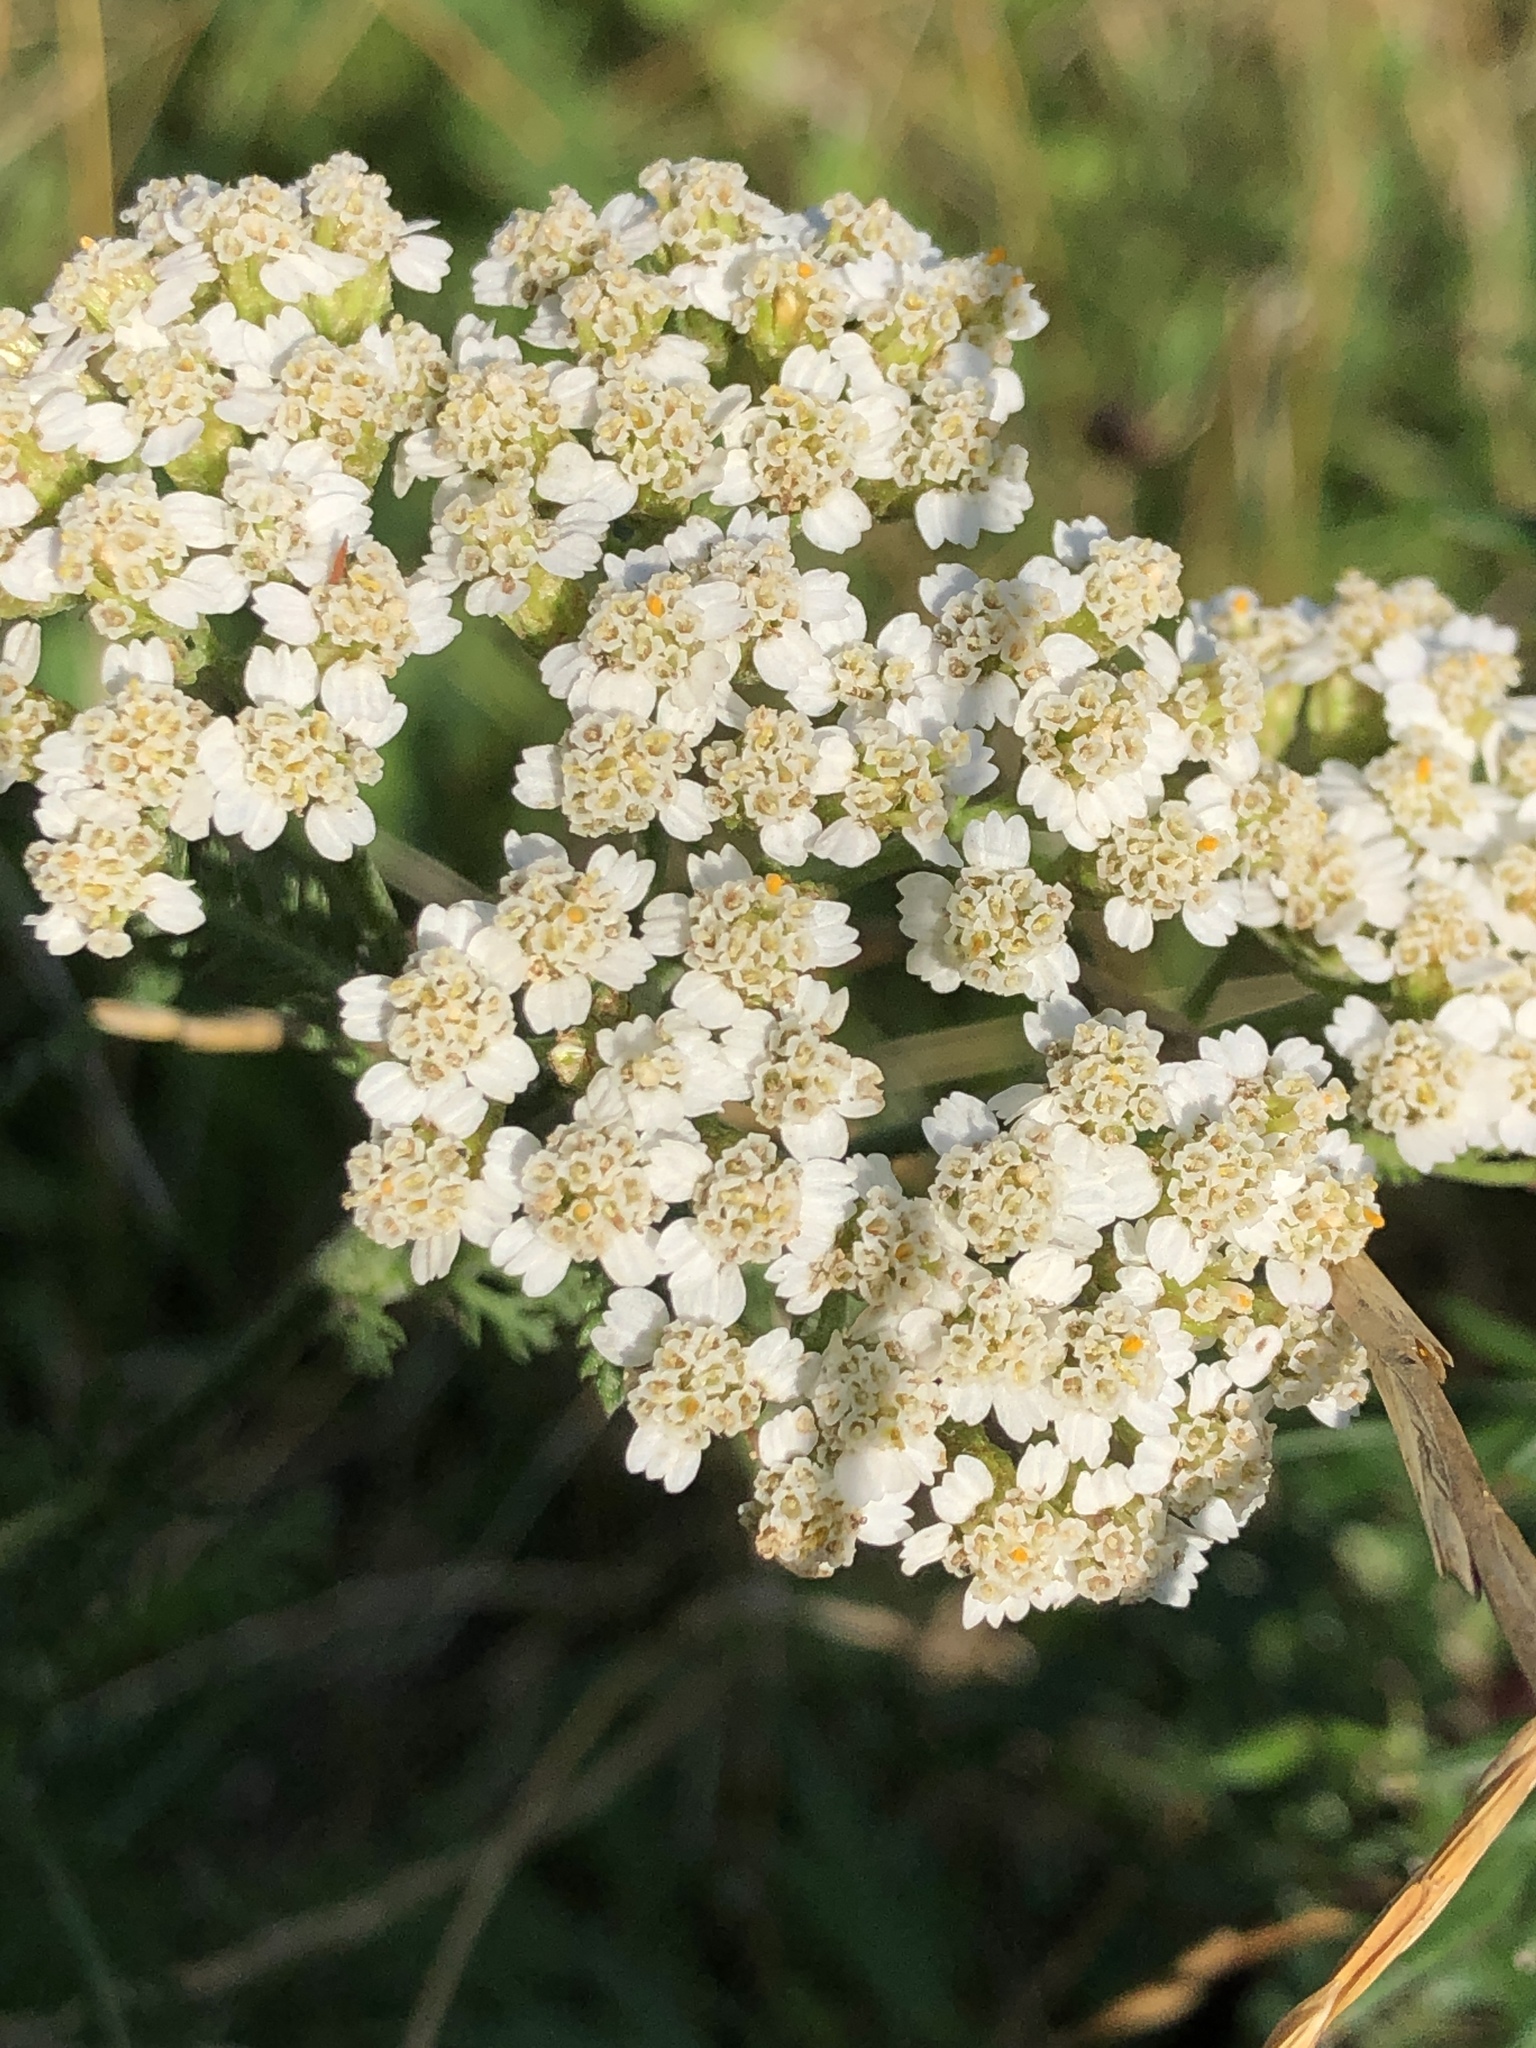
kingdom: Plantae
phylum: Tracheophyta
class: Magnoliopsida
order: Asterales
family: Asteraceae
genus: Achillea
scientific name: Achillea millefolium
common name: Yarrow
